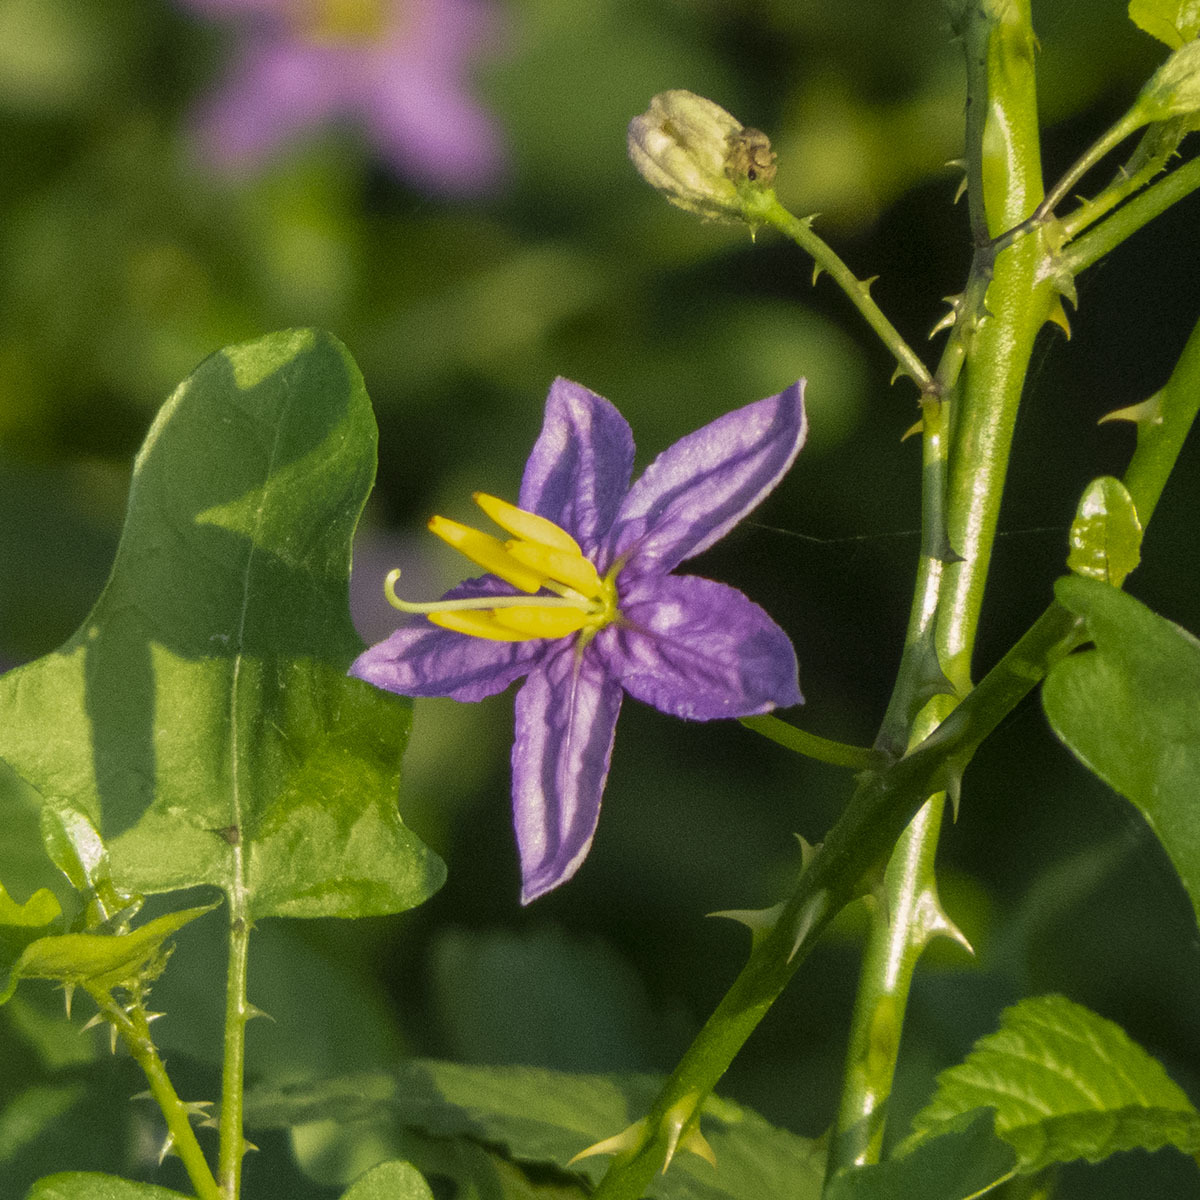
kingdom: Plantae
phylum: Tracheophyta
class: Magnoliopsida
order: Solanales
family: Solanaceae
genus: Solanum
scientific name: Solanum trilobatum
